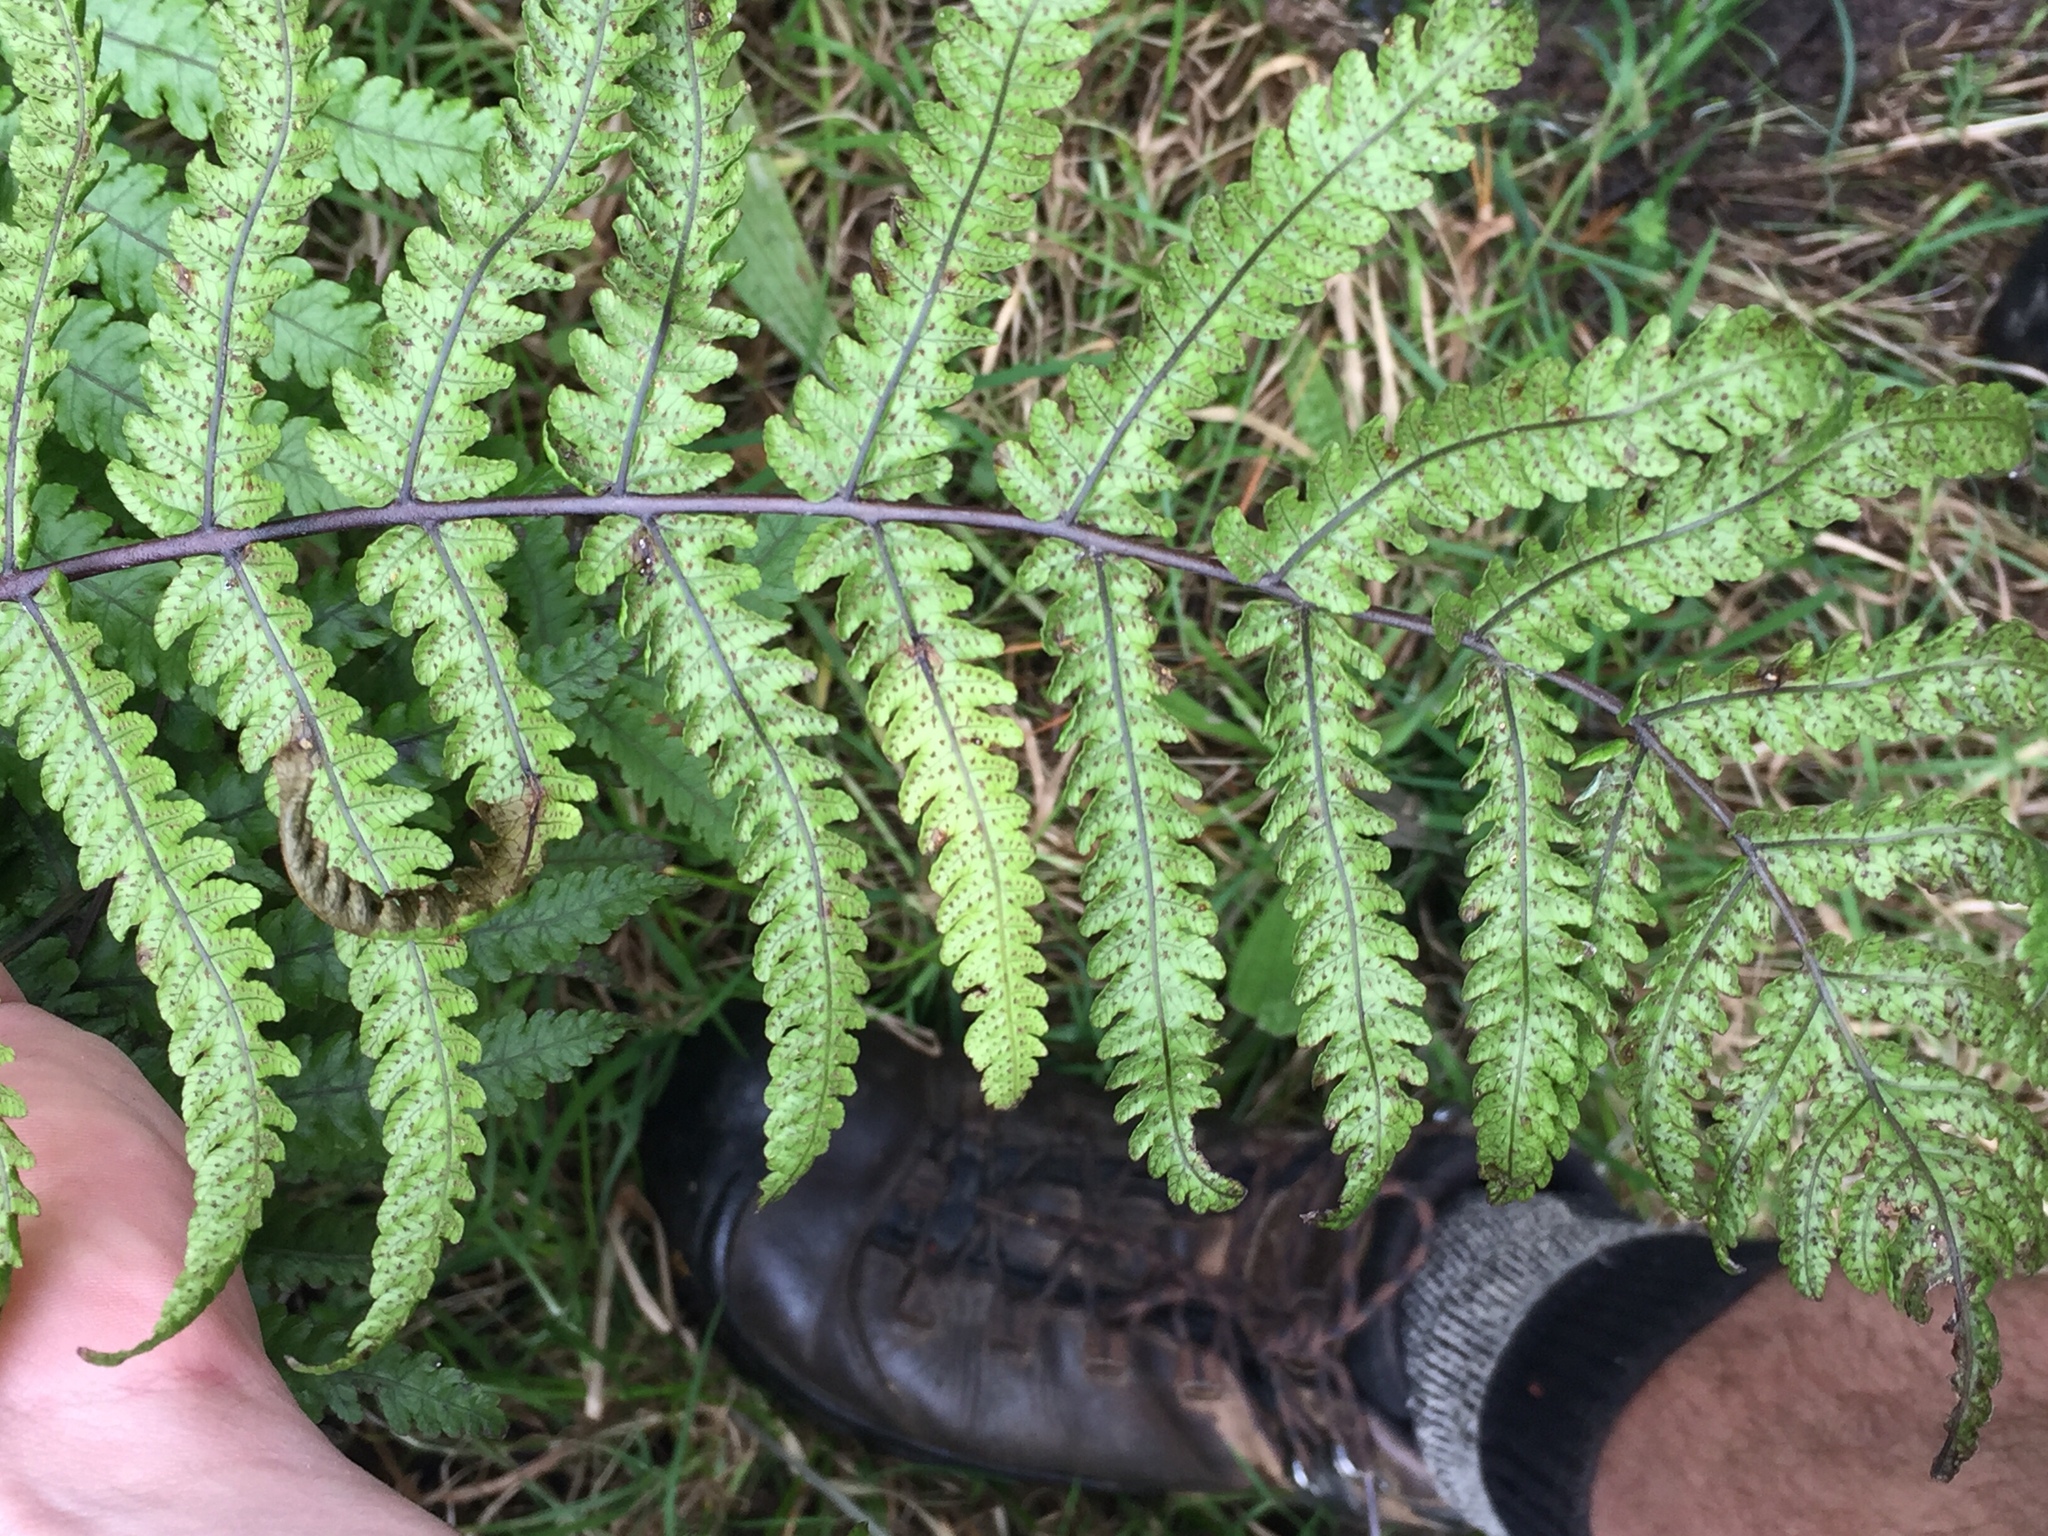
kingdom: Plantae
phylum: Tracheophyta
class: Polypodiopsida
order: Polypodiales
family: Thelypteridaceae
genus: Pakau
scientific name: Pakau pennigera
